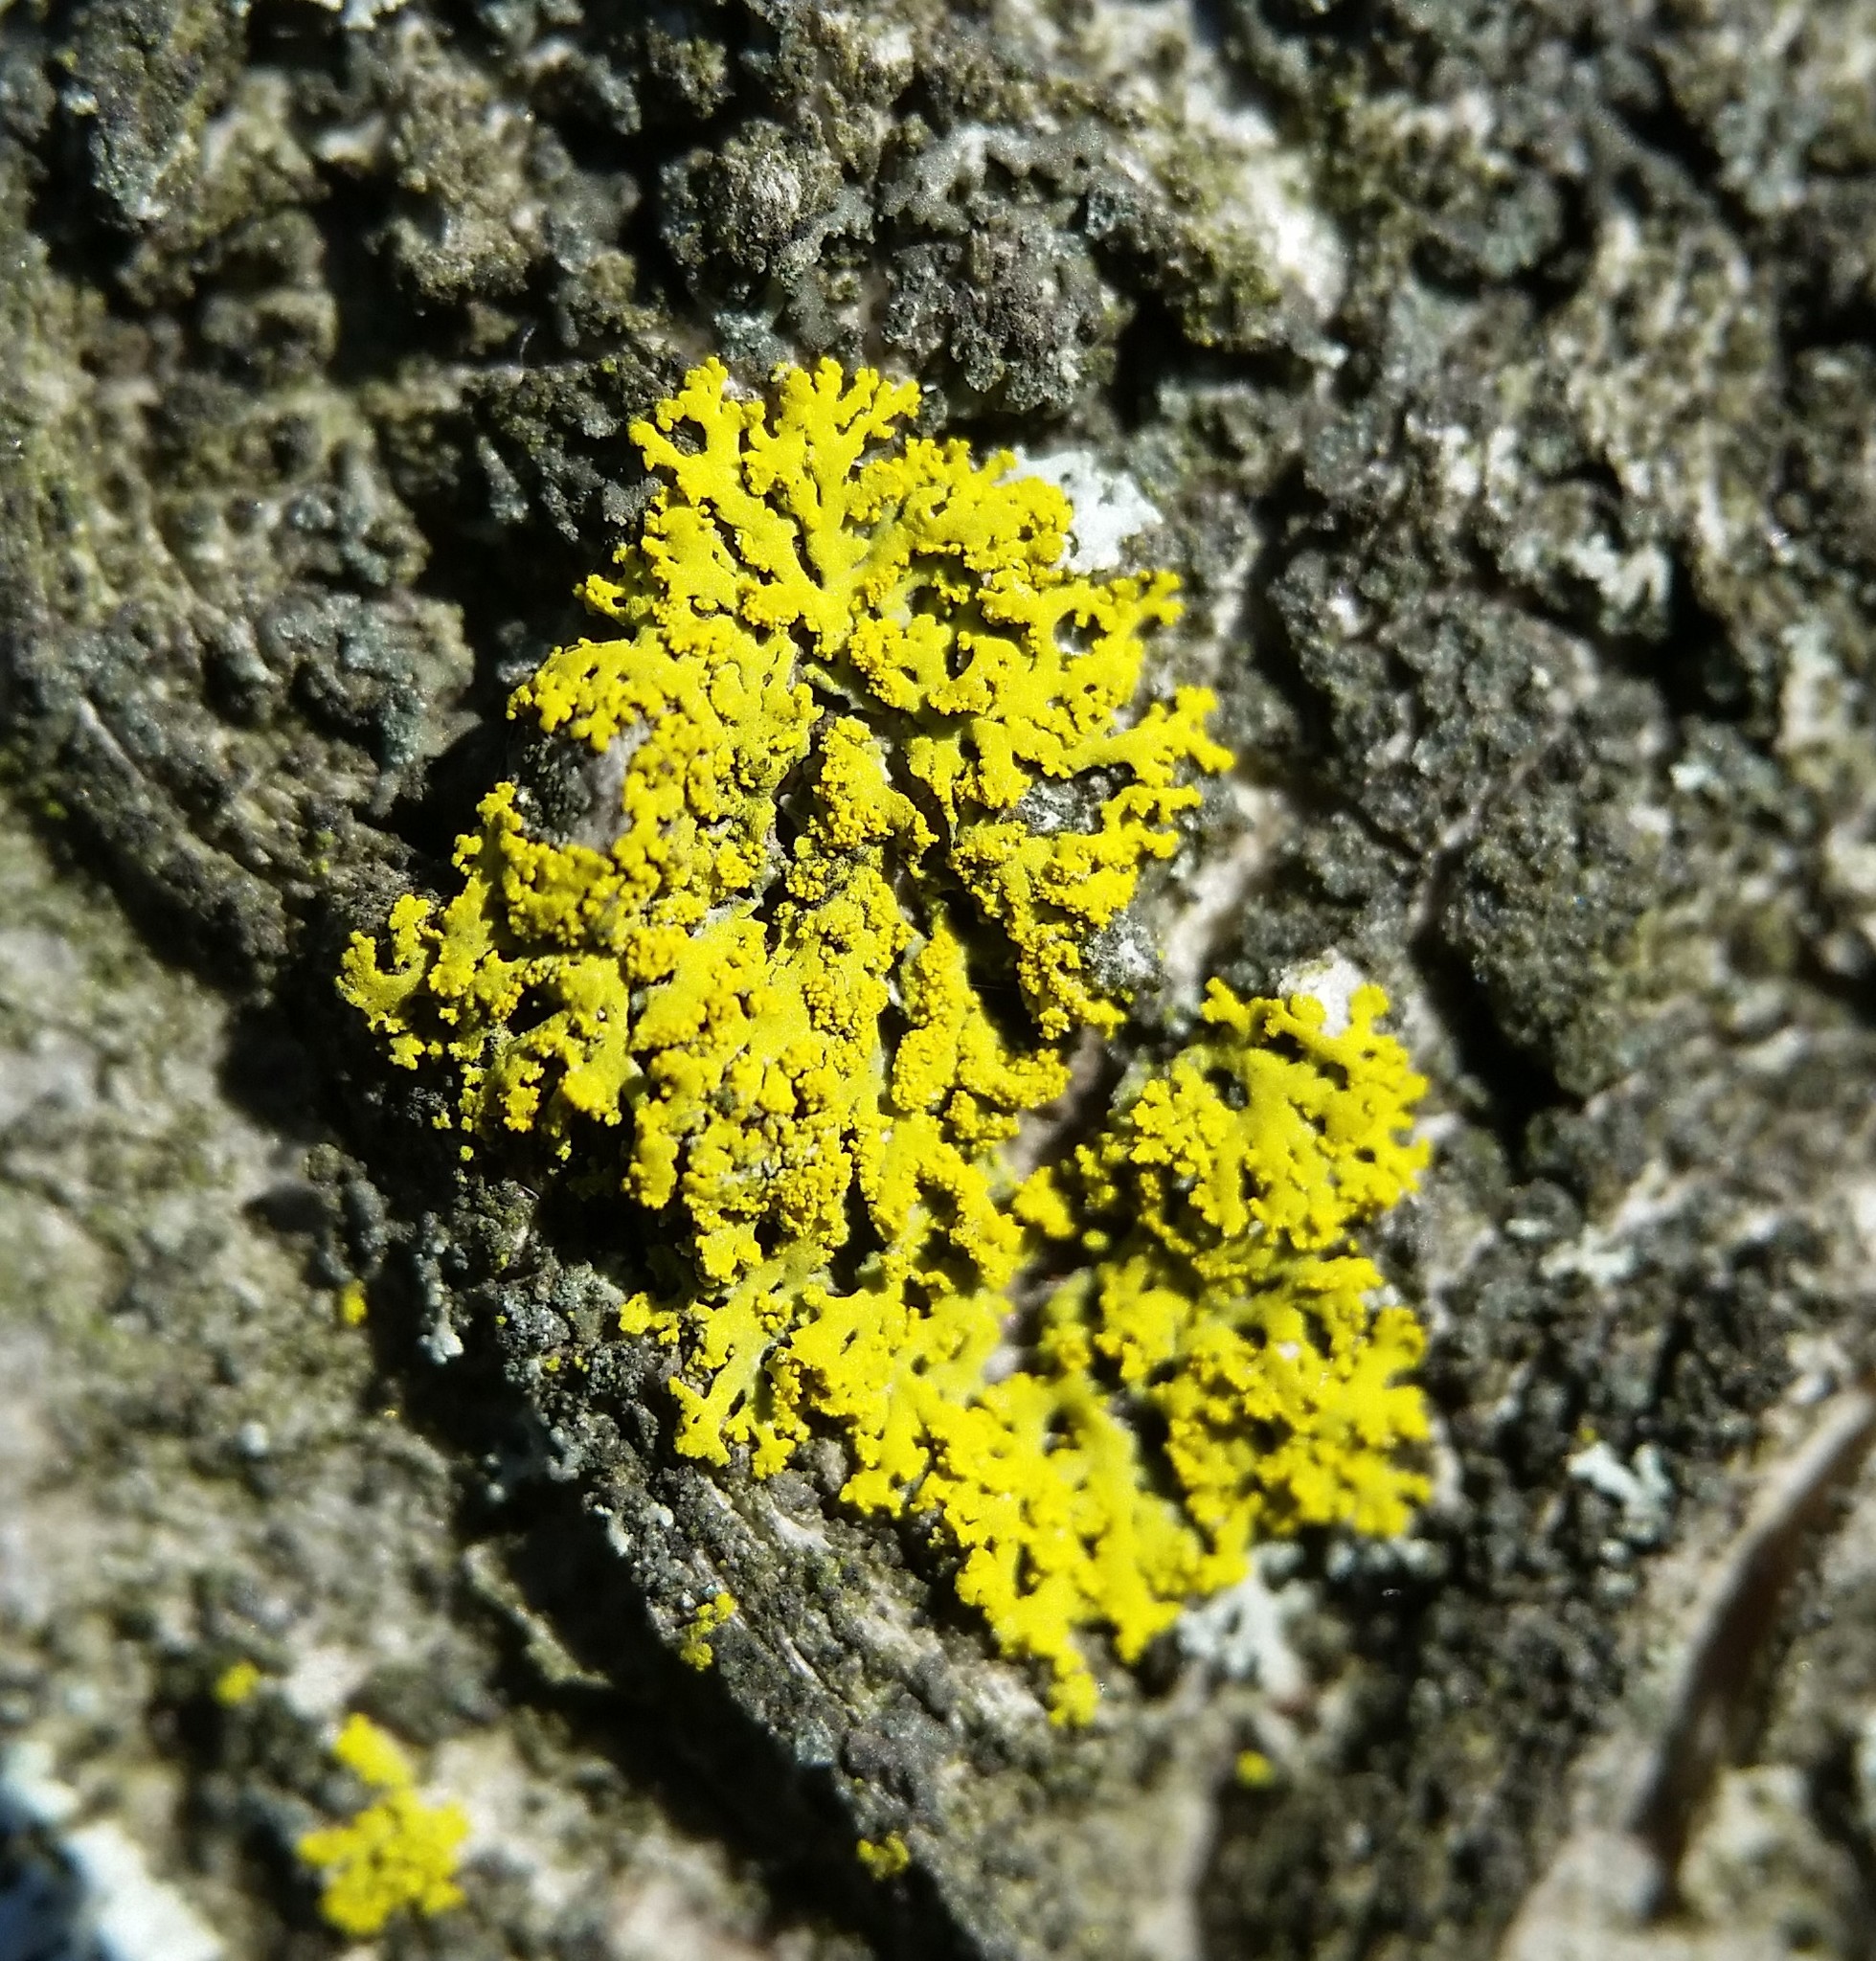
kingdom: Fungi
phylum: Ascomycota
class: Candelariomycetes
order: Candelariales
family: Candelariaceae
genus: Candelaria
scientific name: Candelaria concolor
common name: Candleflame lichen
